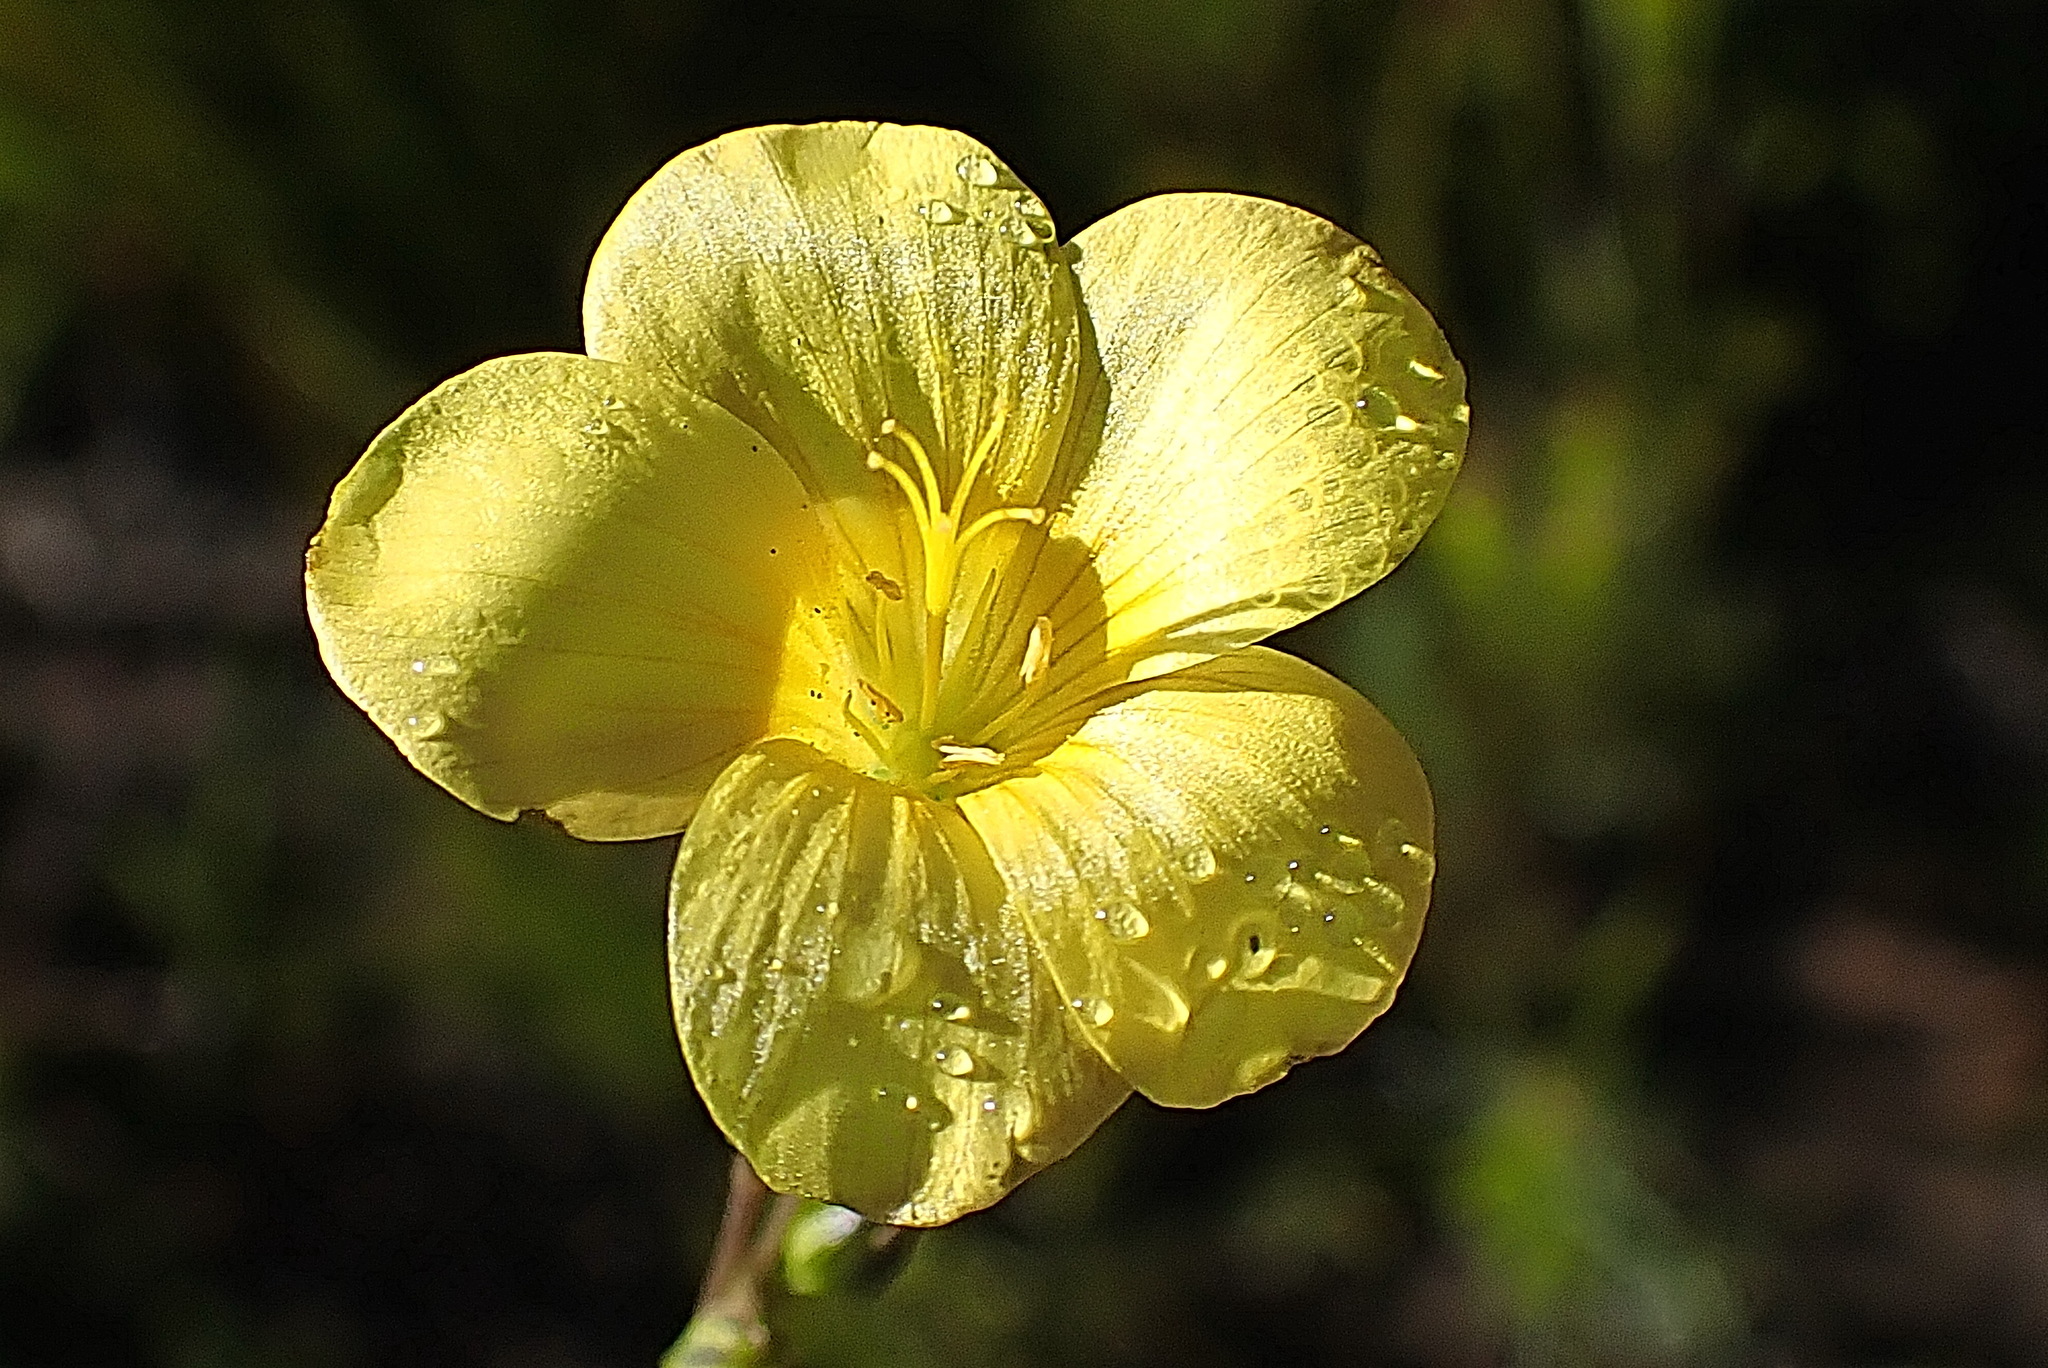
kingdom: Plantae
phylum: Tracheophyta
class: Magnoliopsida
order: Malpighiales
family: Linaceae
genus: Linum
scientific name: Linum africanum
